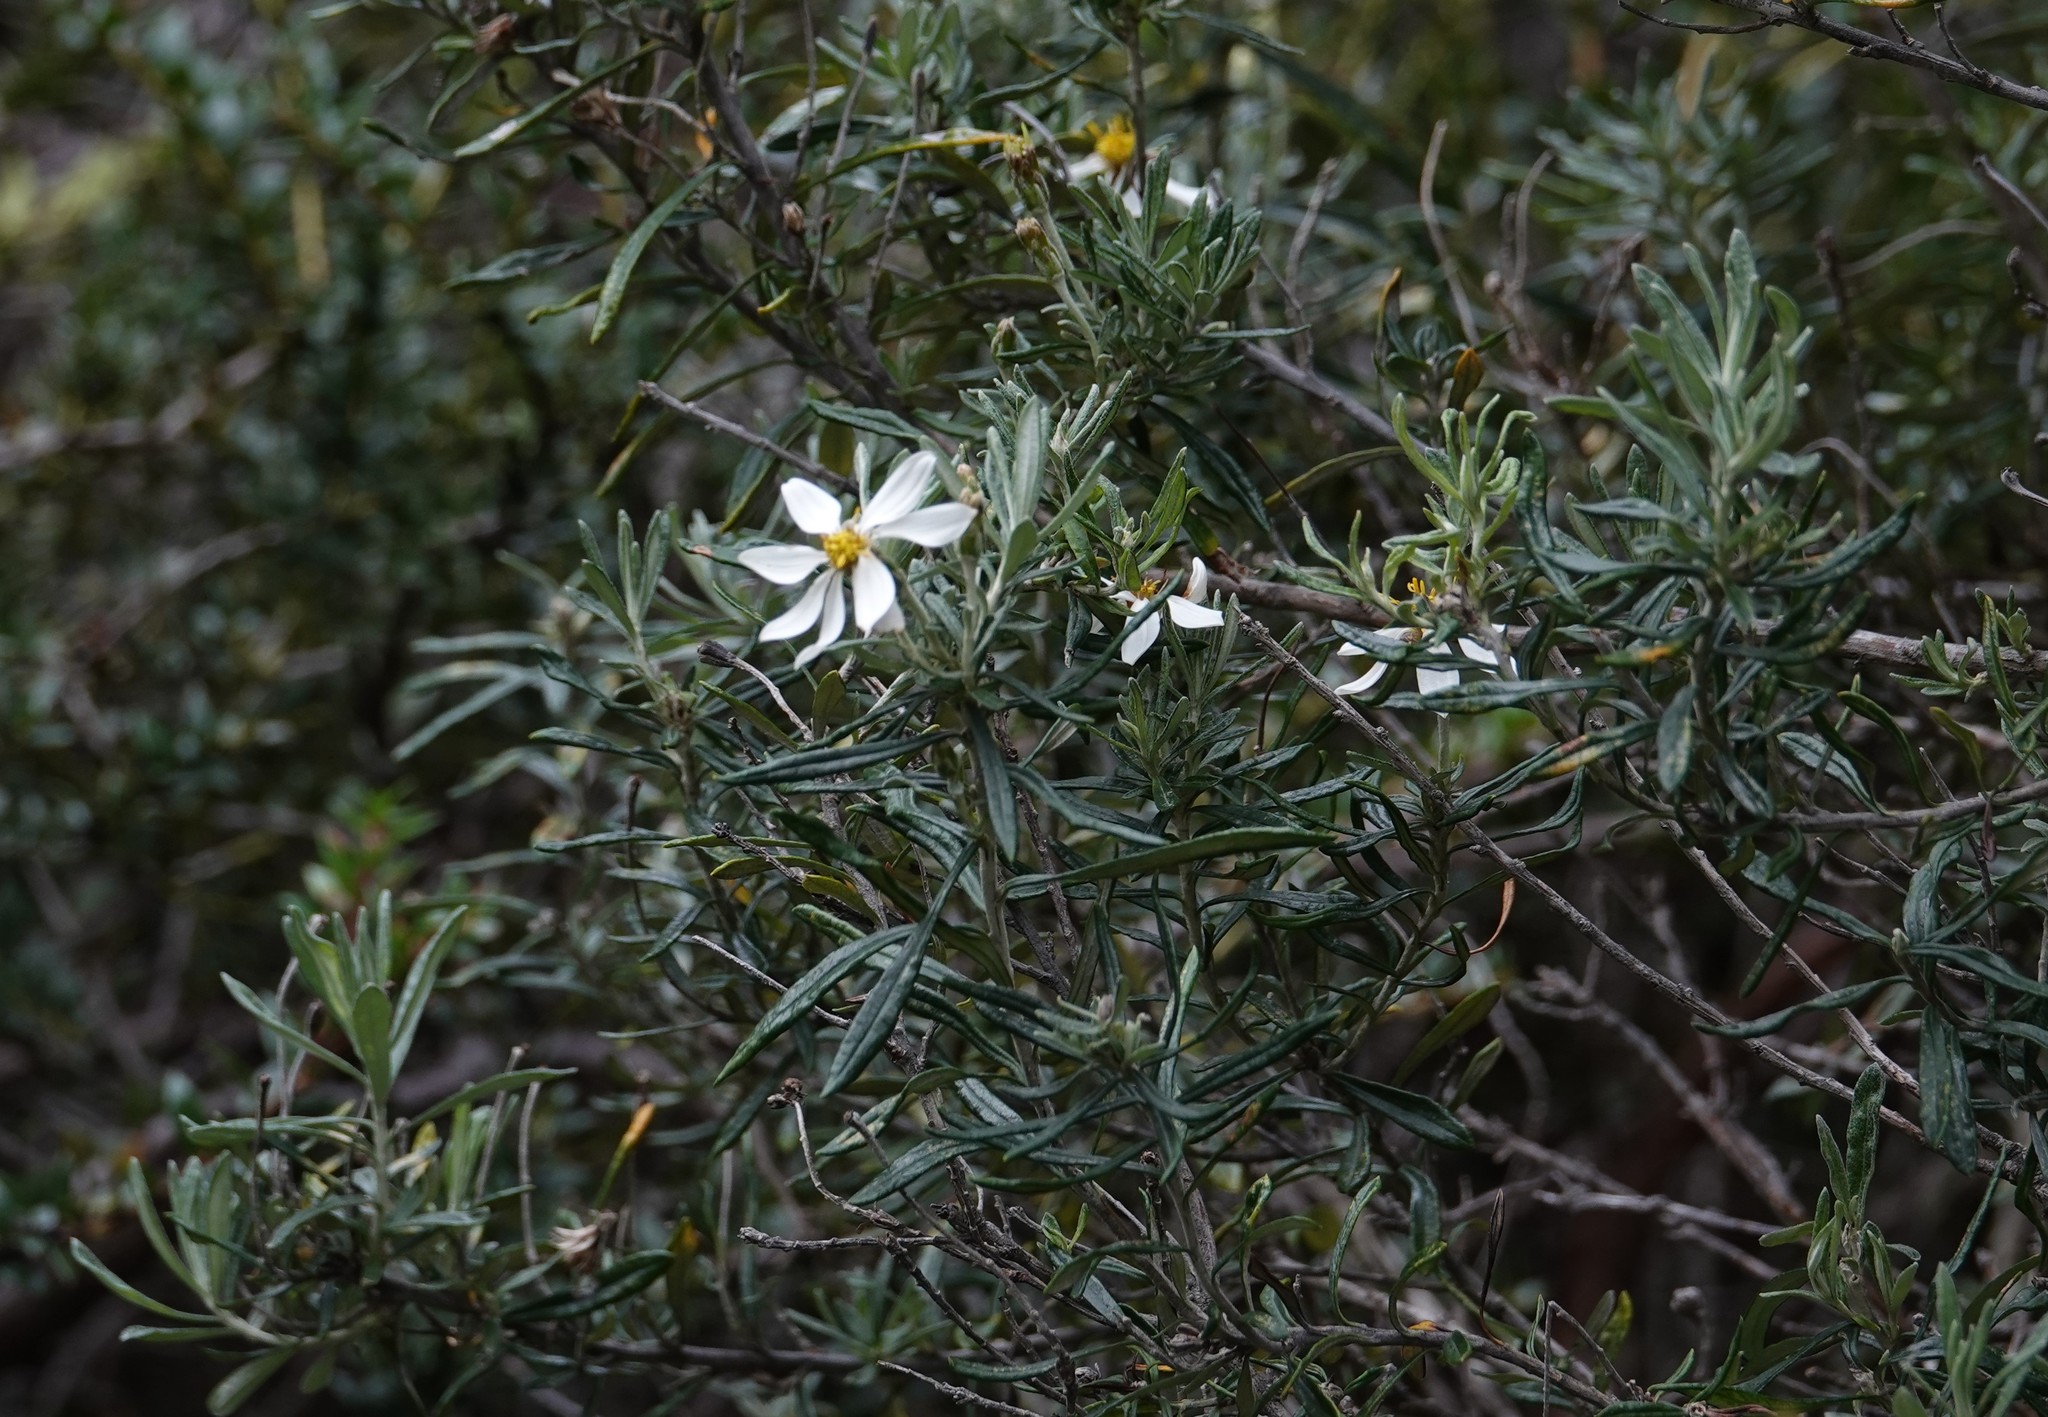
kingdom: Plantae
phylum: Tracheophyta
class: Magnoliopsida
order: Asterales
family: Asteraceae
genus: Chiliotrichum
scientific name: Chiliotrichum diffusum
